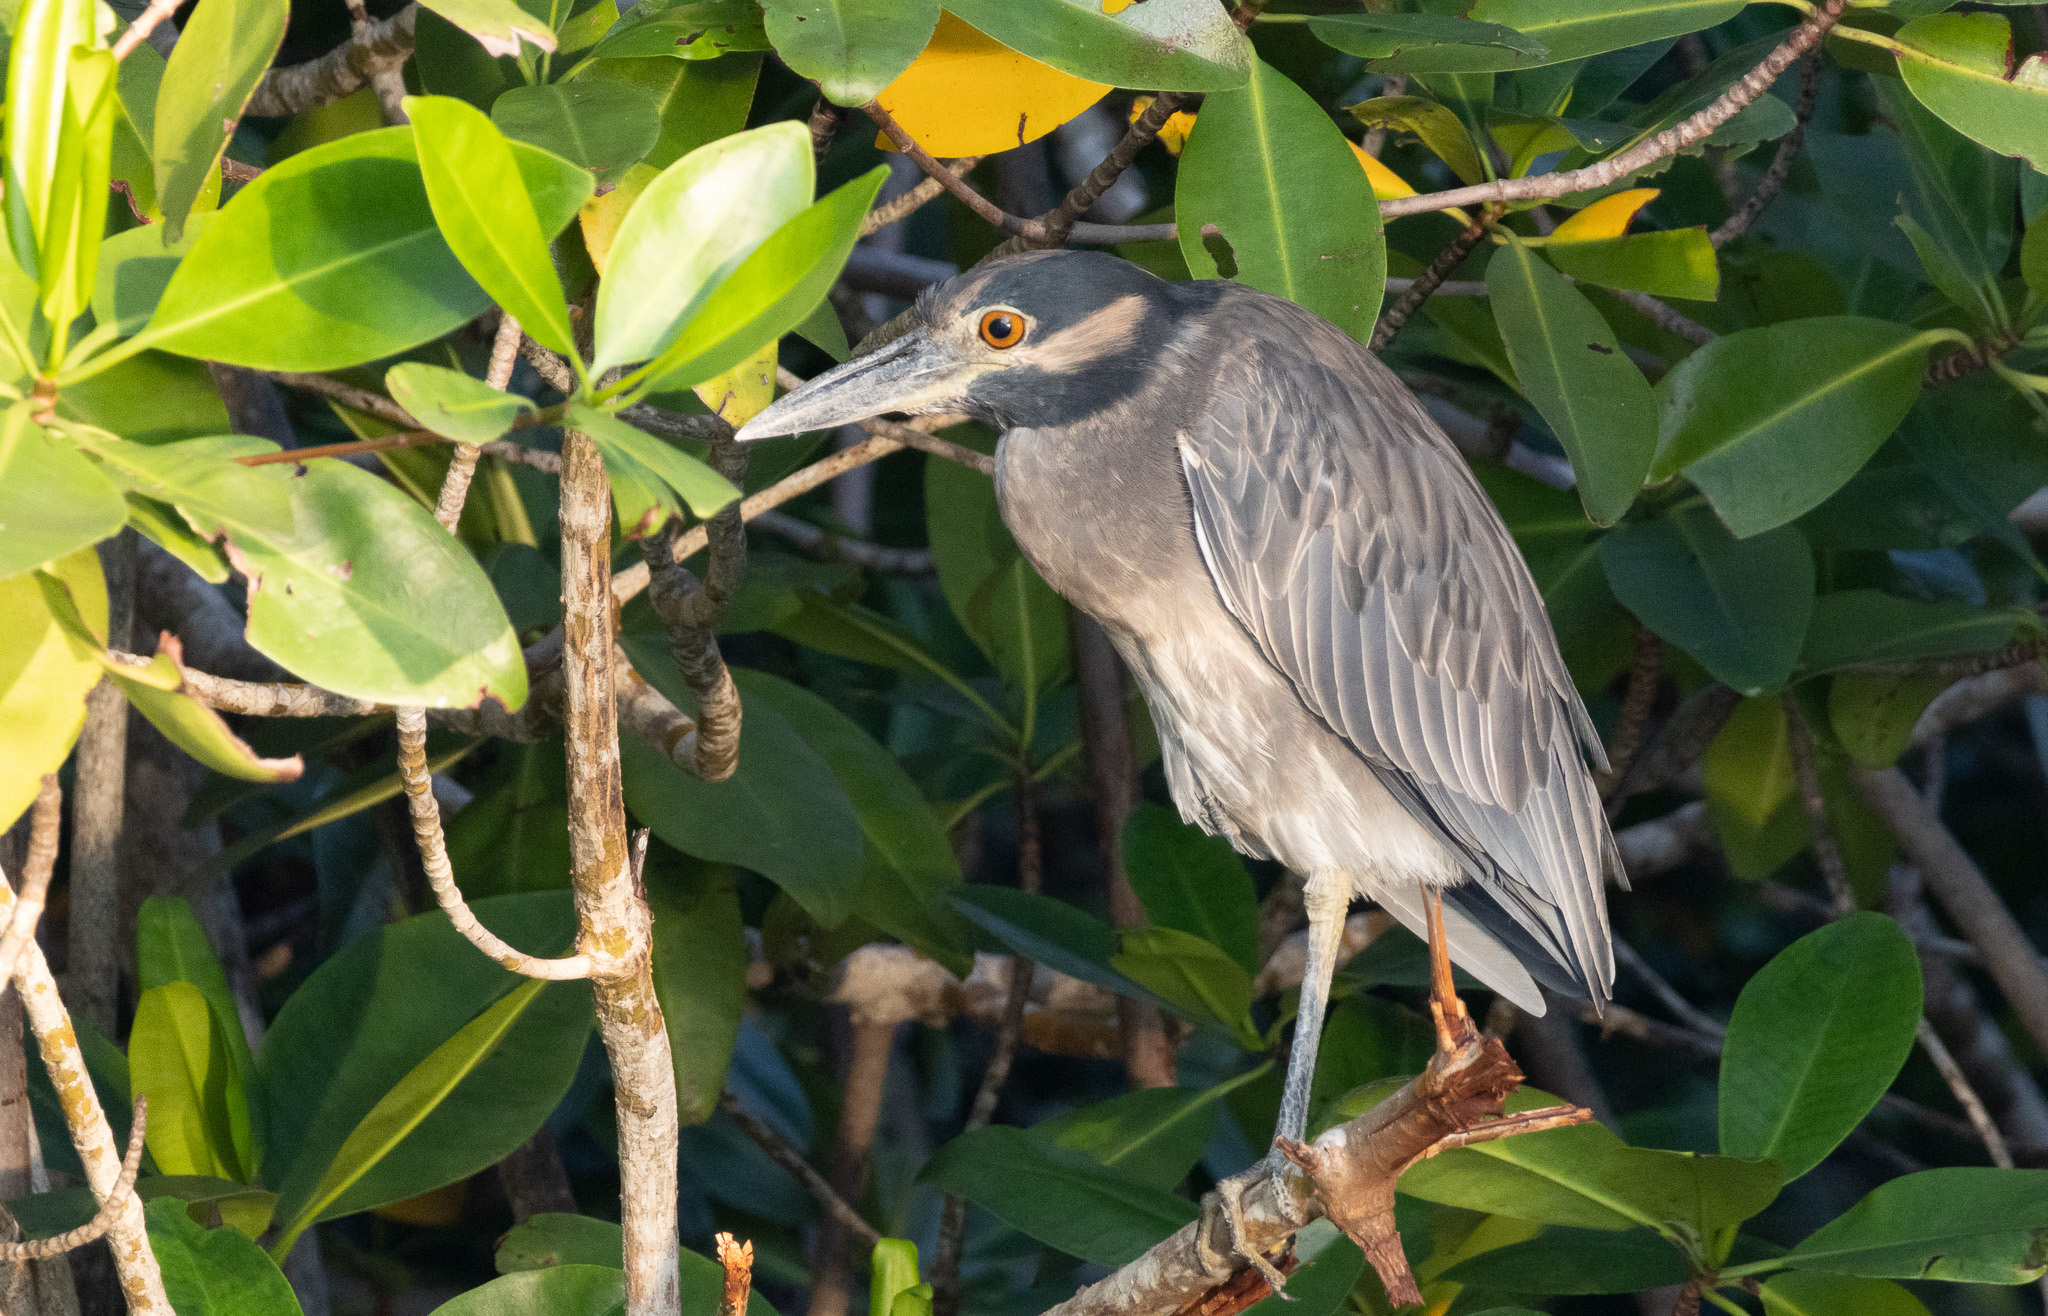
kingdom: Animalia
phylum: Chordata
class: Aves
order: Pelecaniformes
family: Ardeidae
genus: Nyctanassa
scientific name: Nyctanassa violacea
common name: Yellow-crowned night heron
